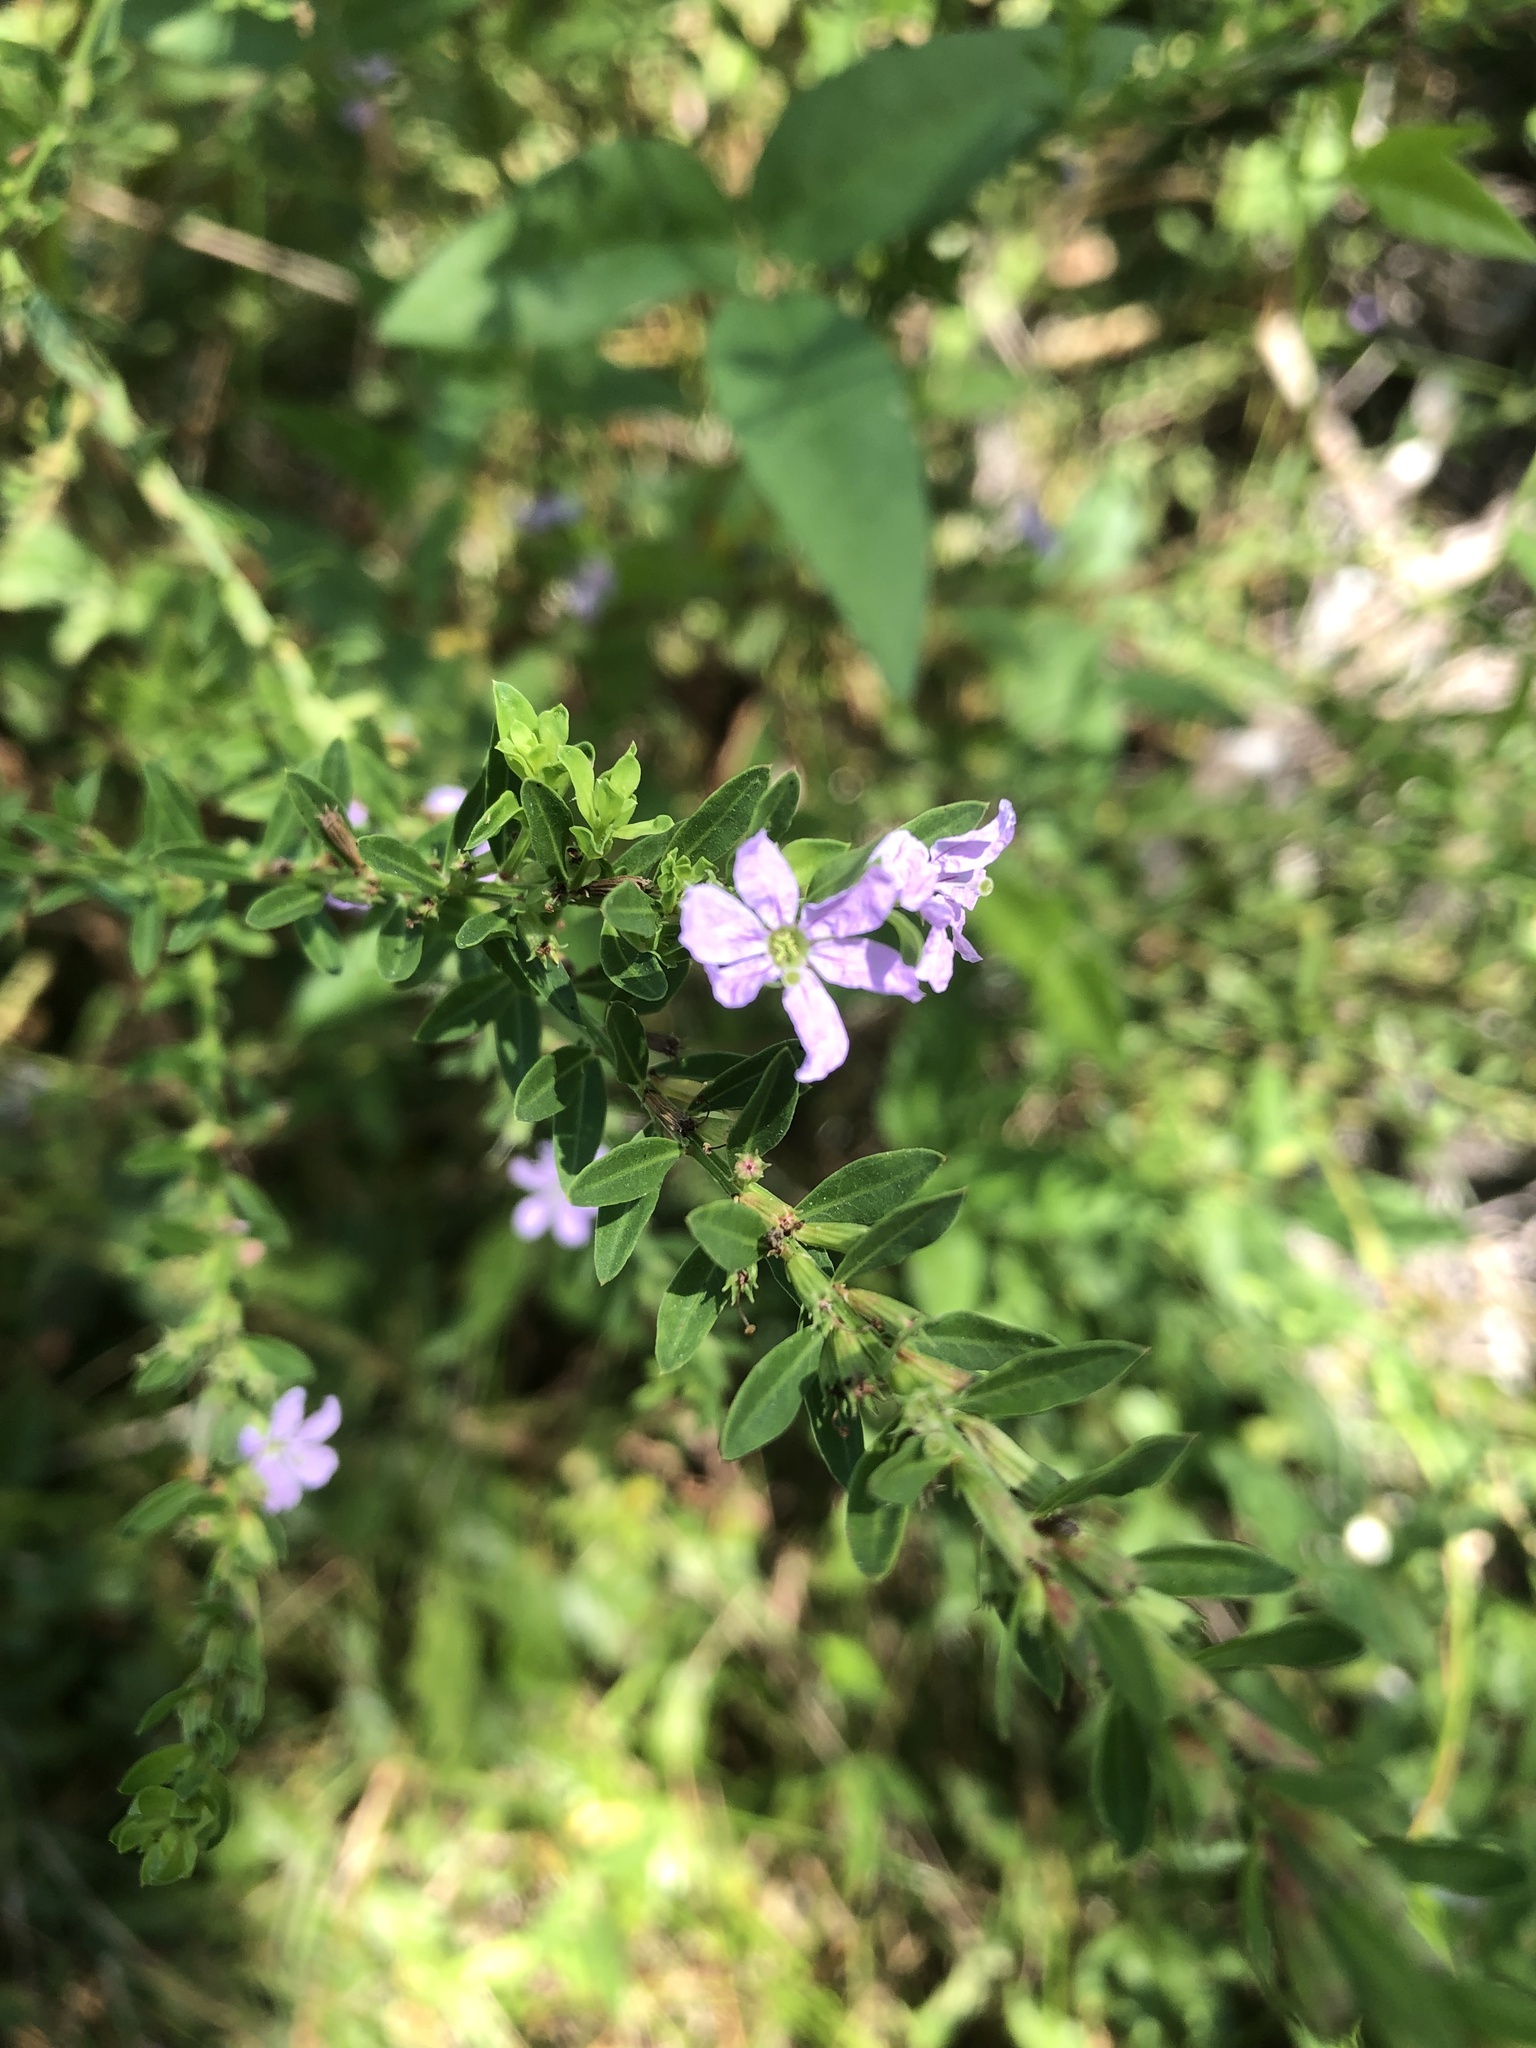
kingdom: Plantae
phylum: Tracheophyta
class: Magnoliopsida
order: Myrtales
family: Lythraceae
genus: Lythrum
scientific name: Lythrum alatum
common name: Winged loosestrife
